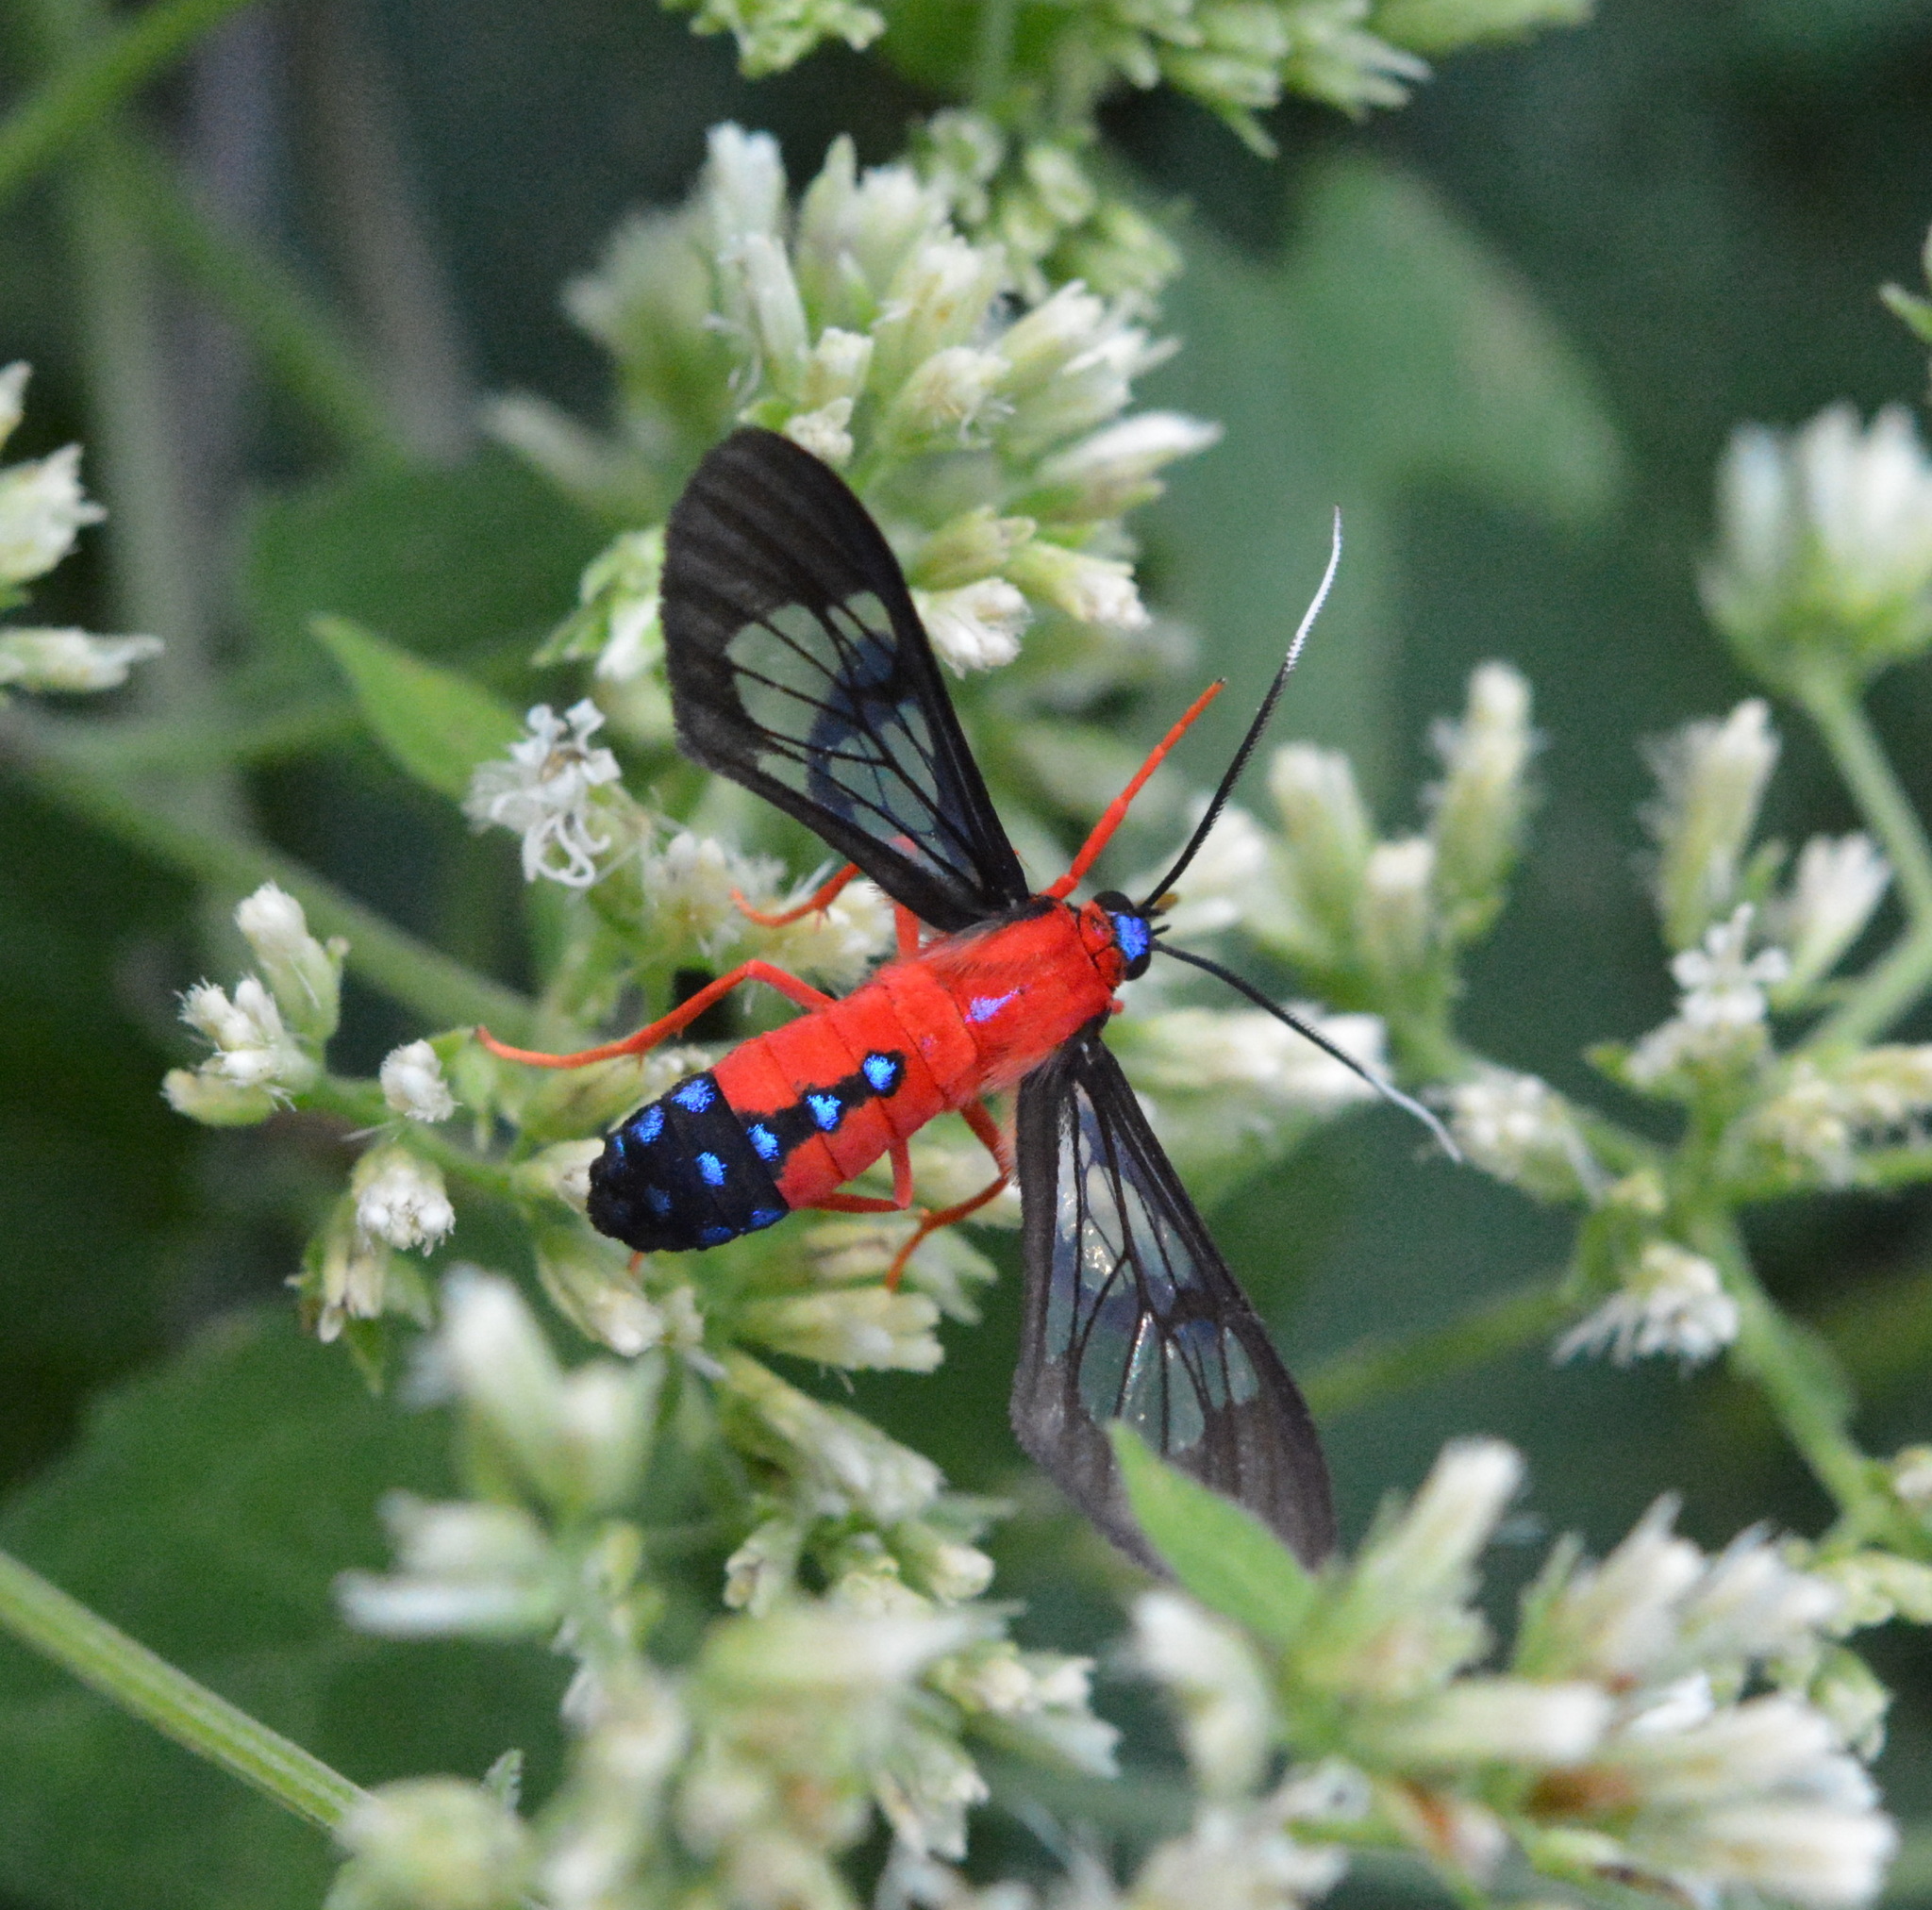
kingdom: Animalia
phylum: Arthropoda
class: Insecta
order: Lepidoptera
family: Erebidae
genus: Cosmosoma
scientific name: Cosmosoma myrodora
